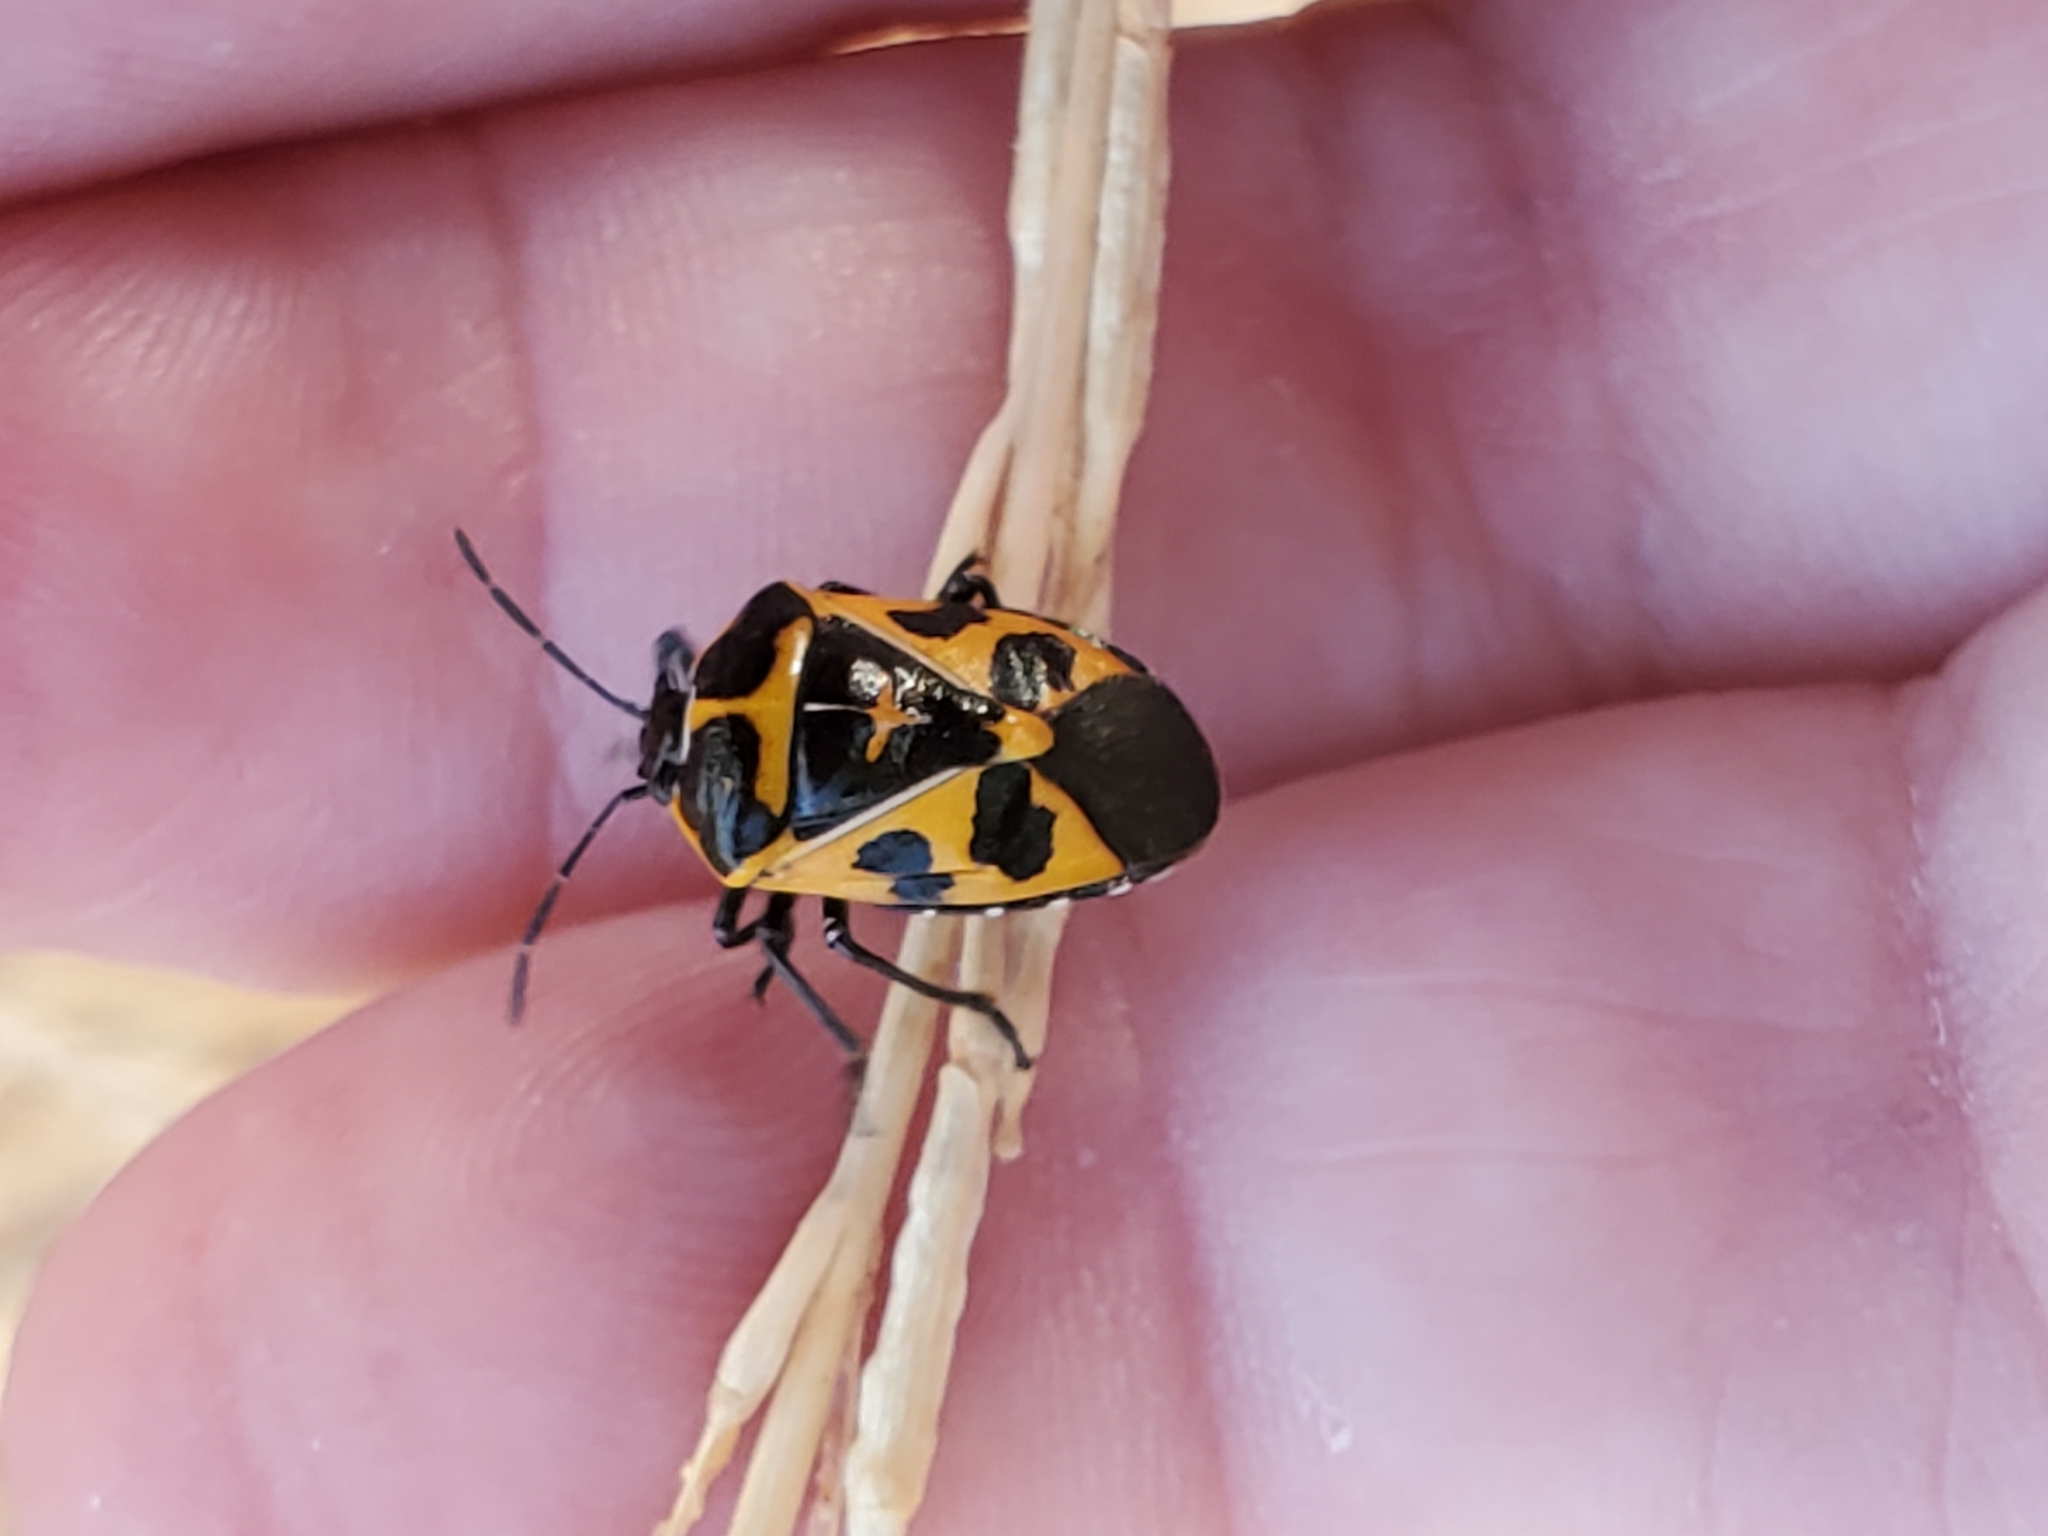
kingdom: Animalia
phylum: Arthropoda
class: Insecta
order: Hemiptera
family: Pentatomidae
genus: Murgantia
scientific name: Murgantia histrionica
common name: Harlequin bug
